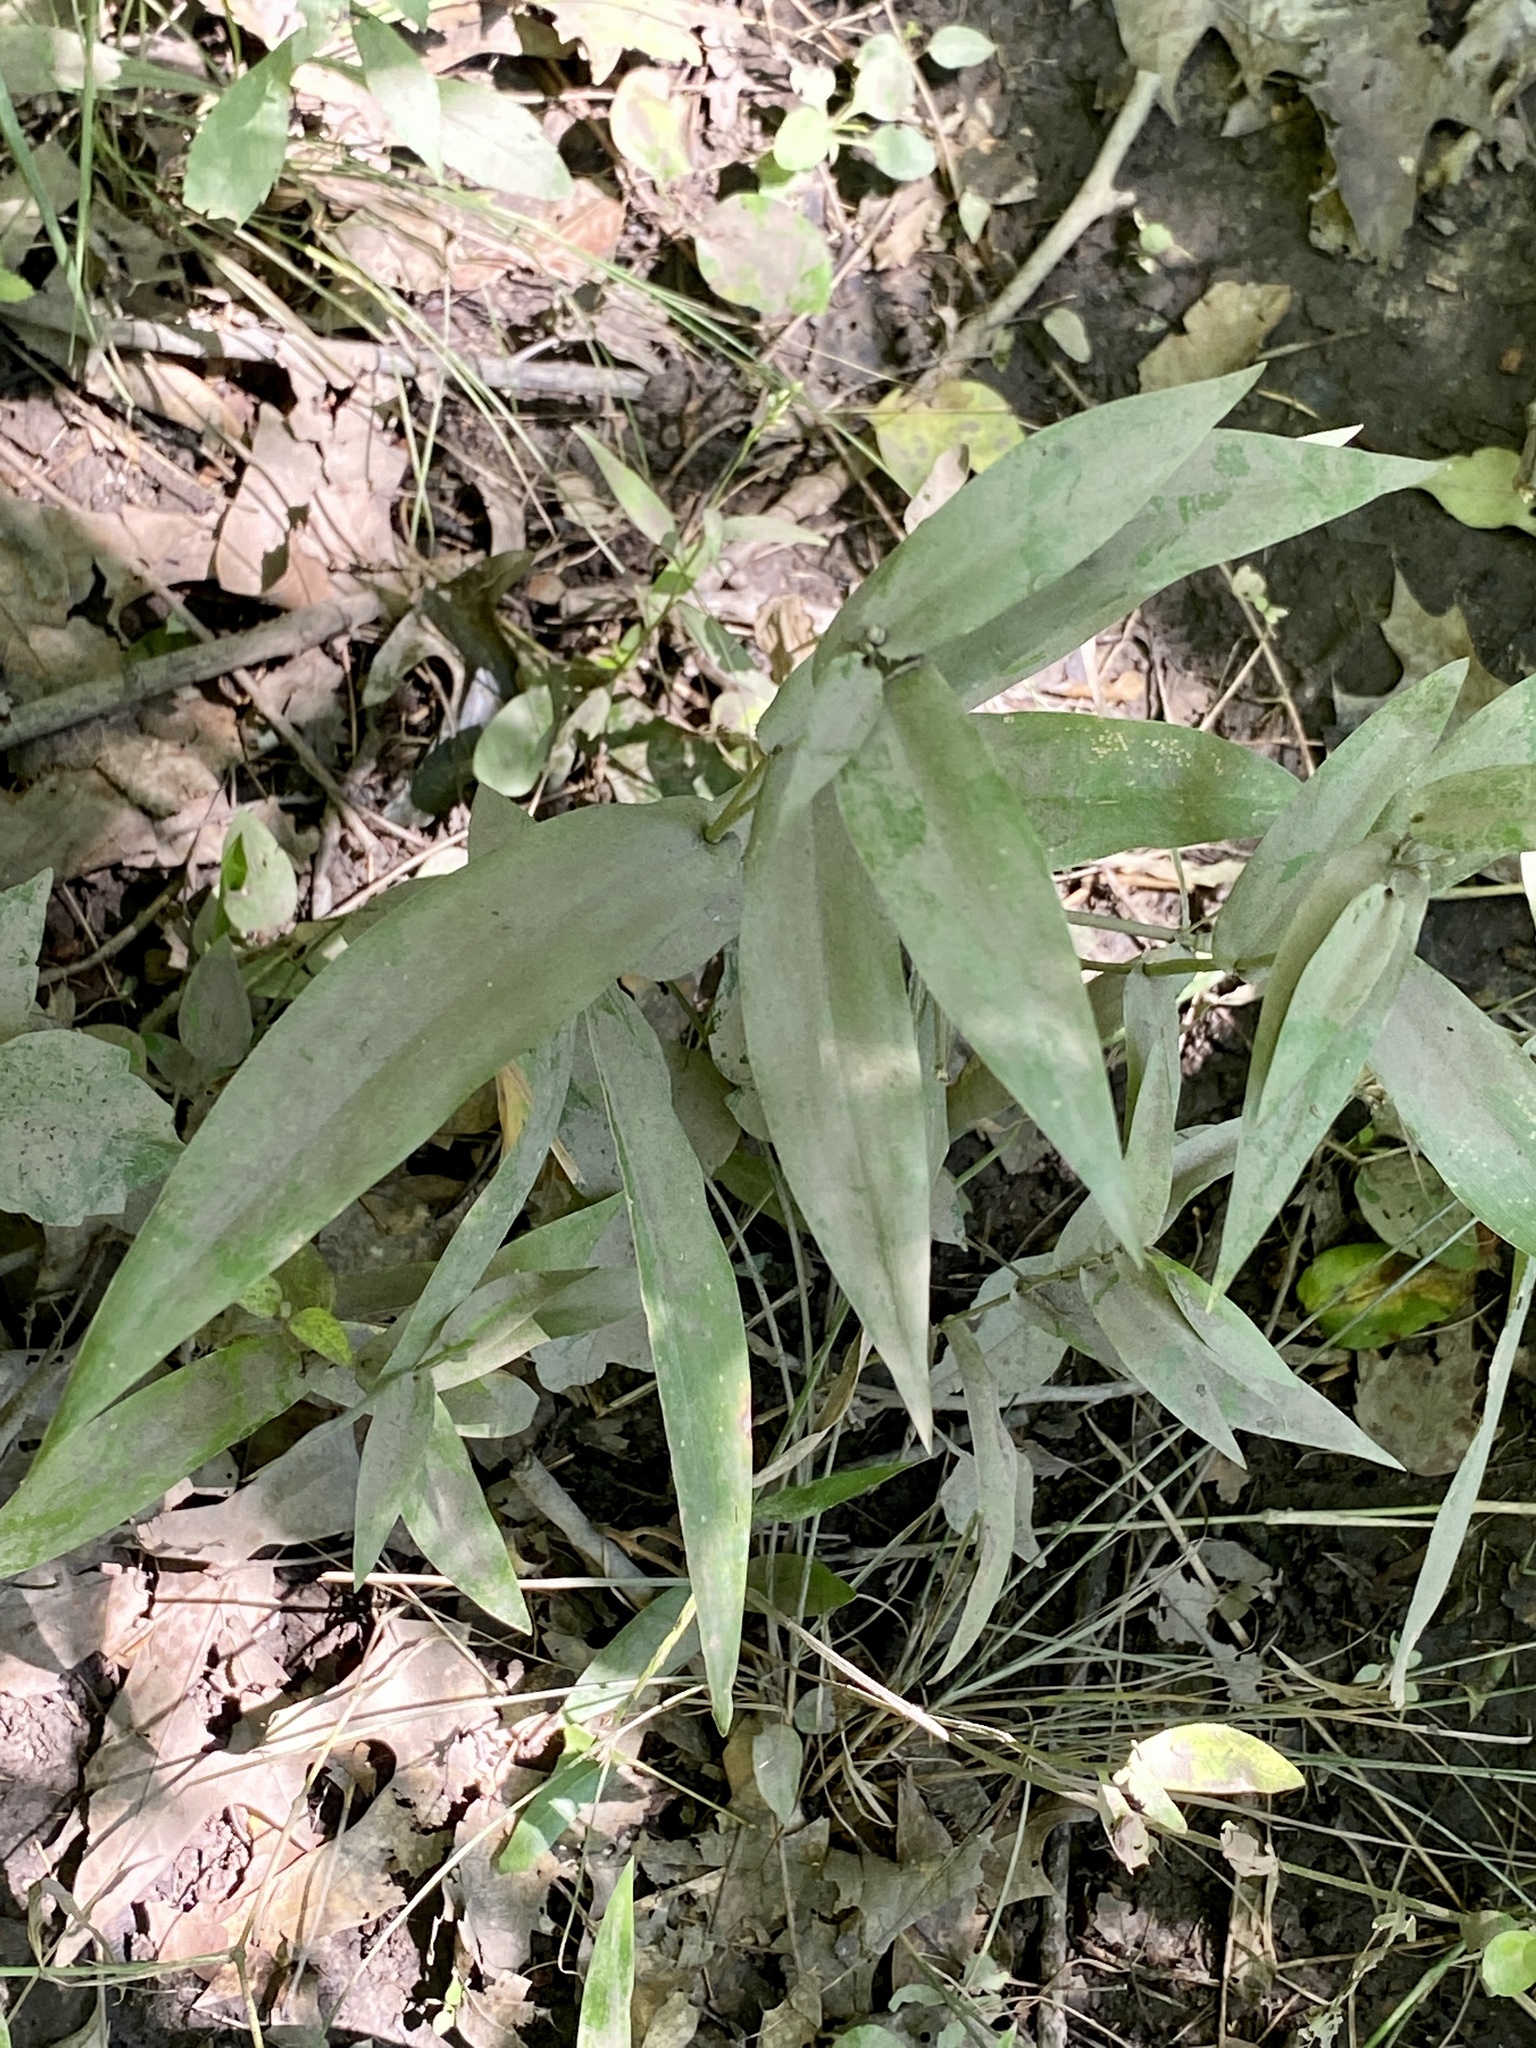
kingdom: Plantae
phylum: Tracheophyta
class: Liliopsida
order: Poales
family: Poaceae
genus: Dichanthelium
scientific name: Dichanthelium clandestinum
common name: Deer-tongue grass
